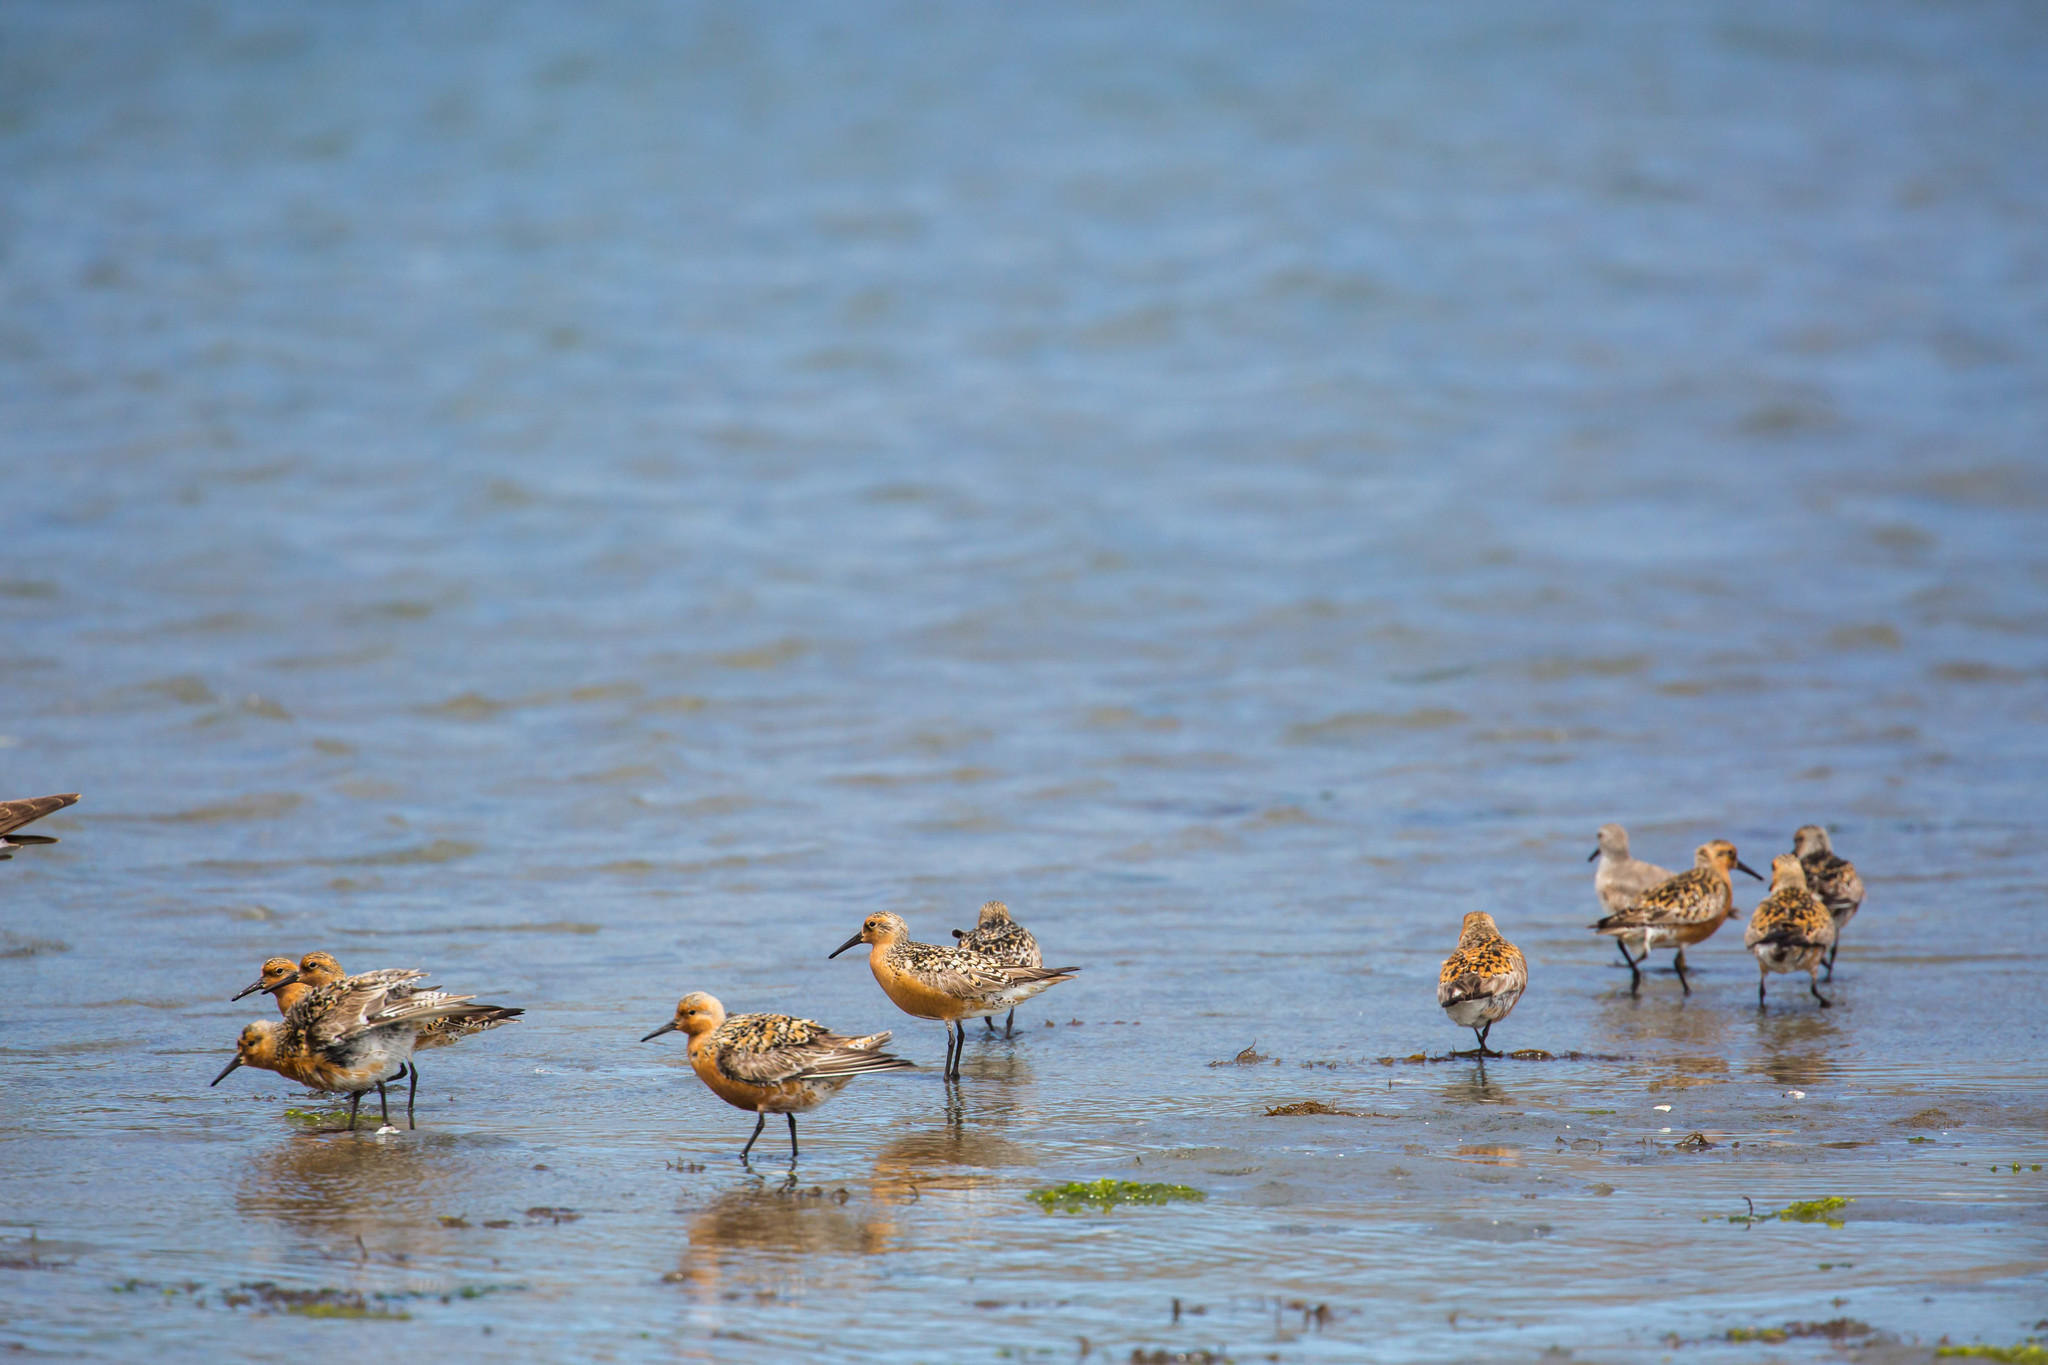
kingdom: Animalia
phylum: Chordata
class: Aves
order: Charadriiformes
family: Scolopacidae
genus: Calidris
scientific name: Calidris canutus
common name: Red knot
